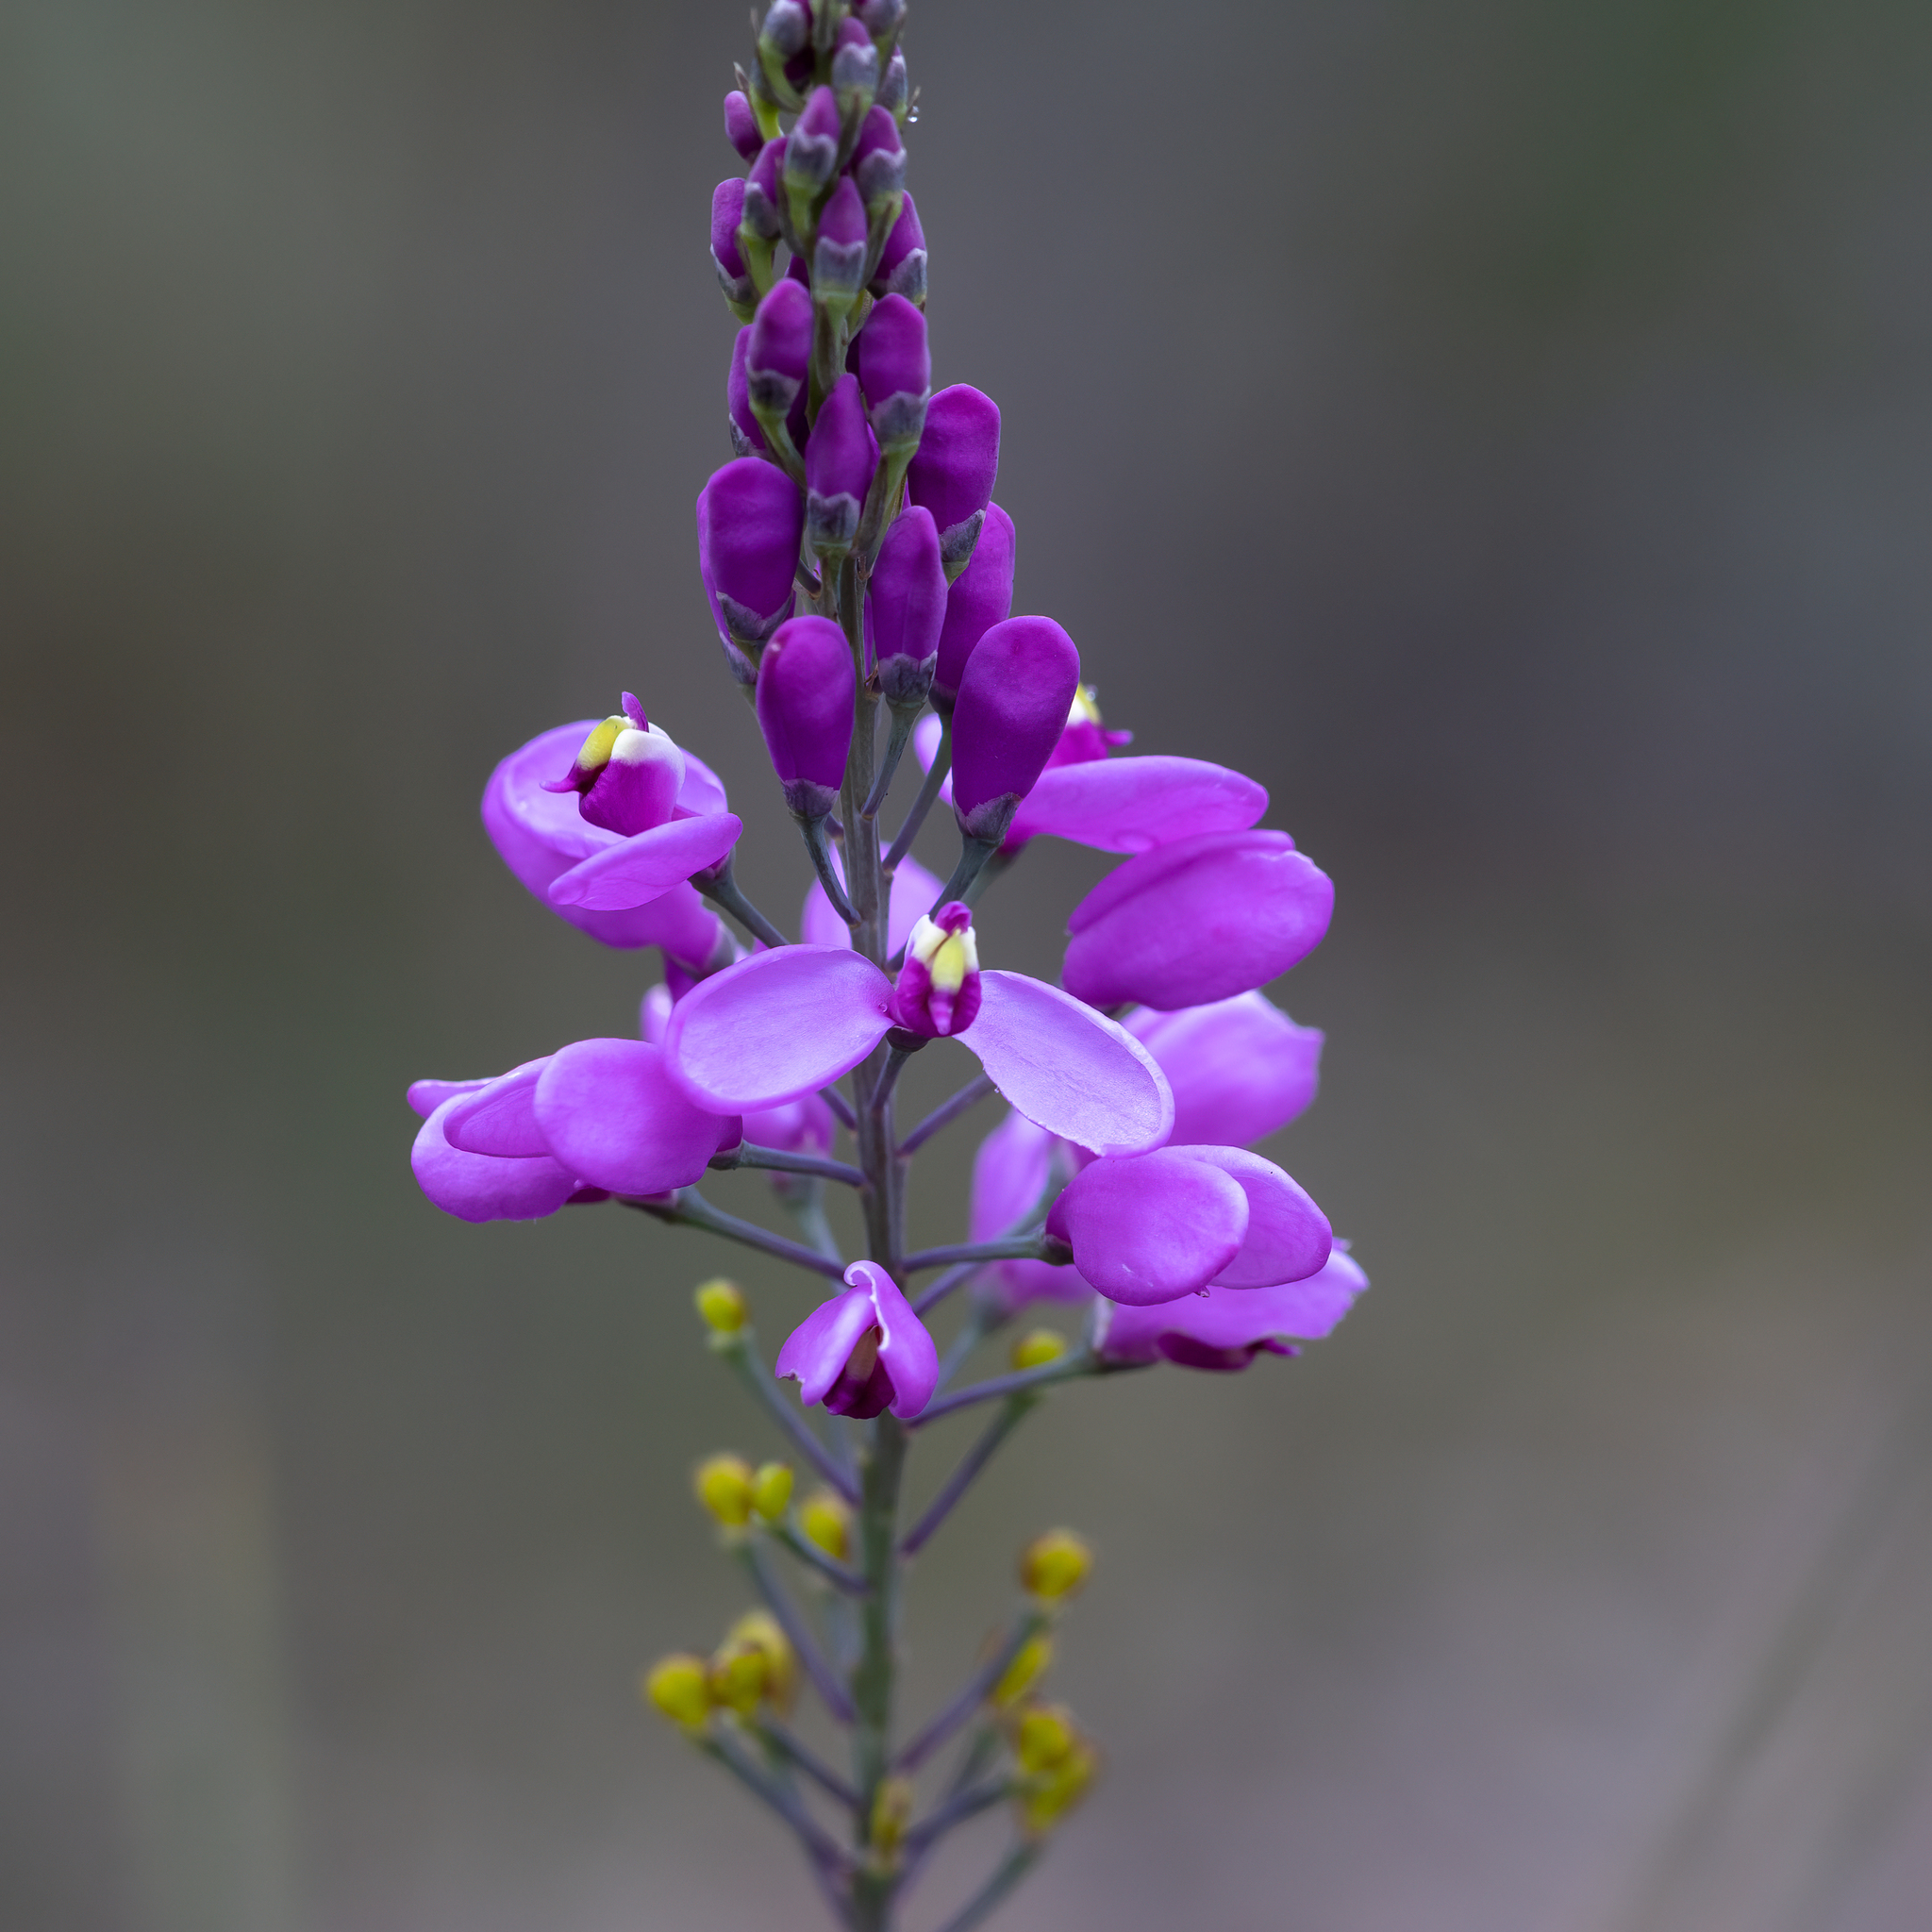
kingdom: Plantae
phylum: Tracheophyta
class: Magnoliopsida
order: Fabales
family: Polygalaceae
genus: Comesperma
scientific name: Comesperma virgatum
